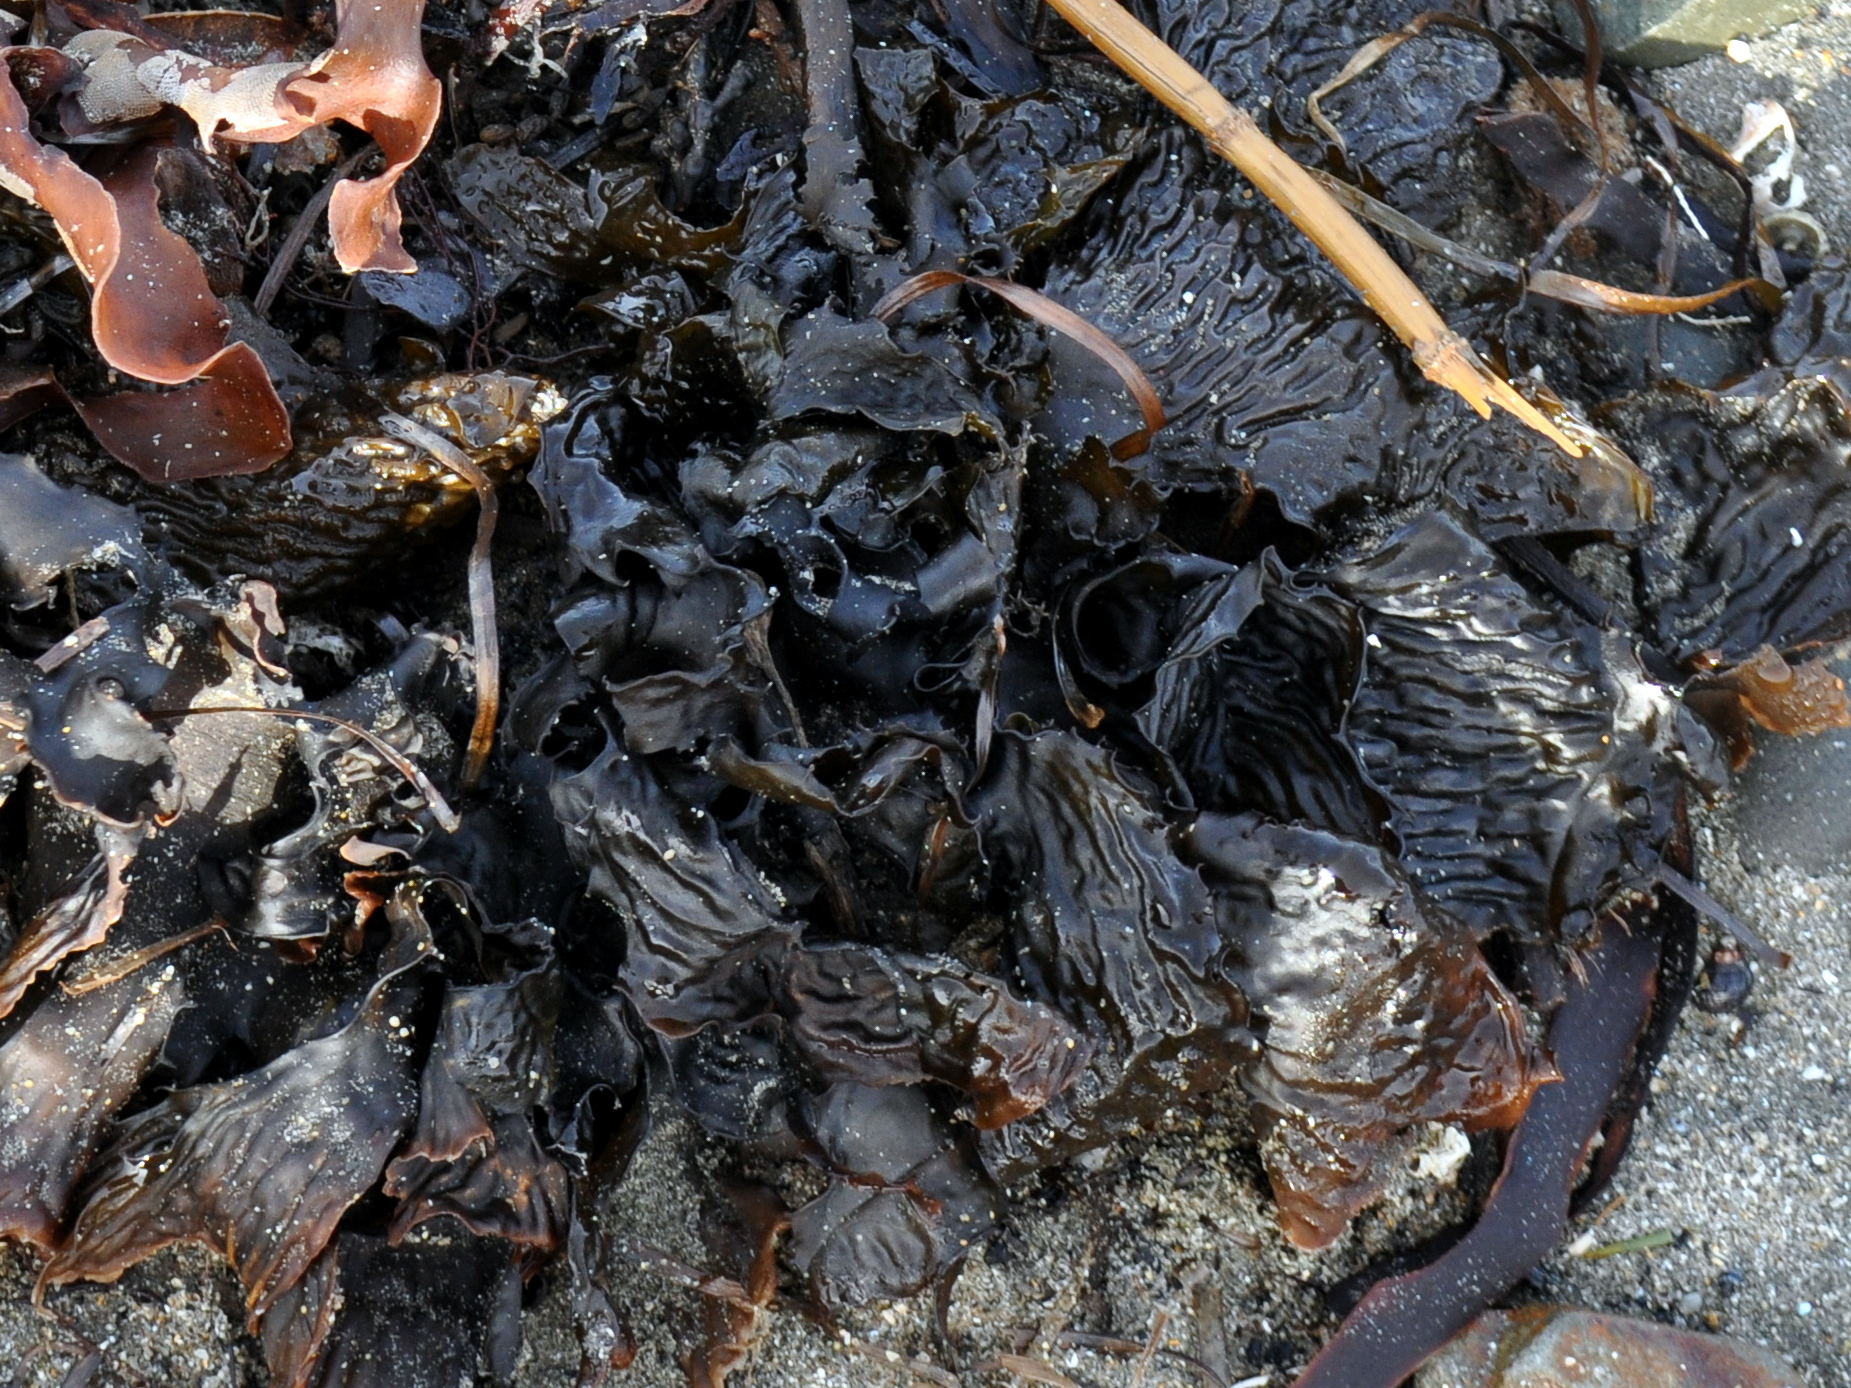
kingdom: Chromista
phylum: Ochrophyta
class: Phaeophyceae
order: Laminariales
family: Lessoniaceae
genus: Ecklonia
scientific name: Ecklonia radiata
